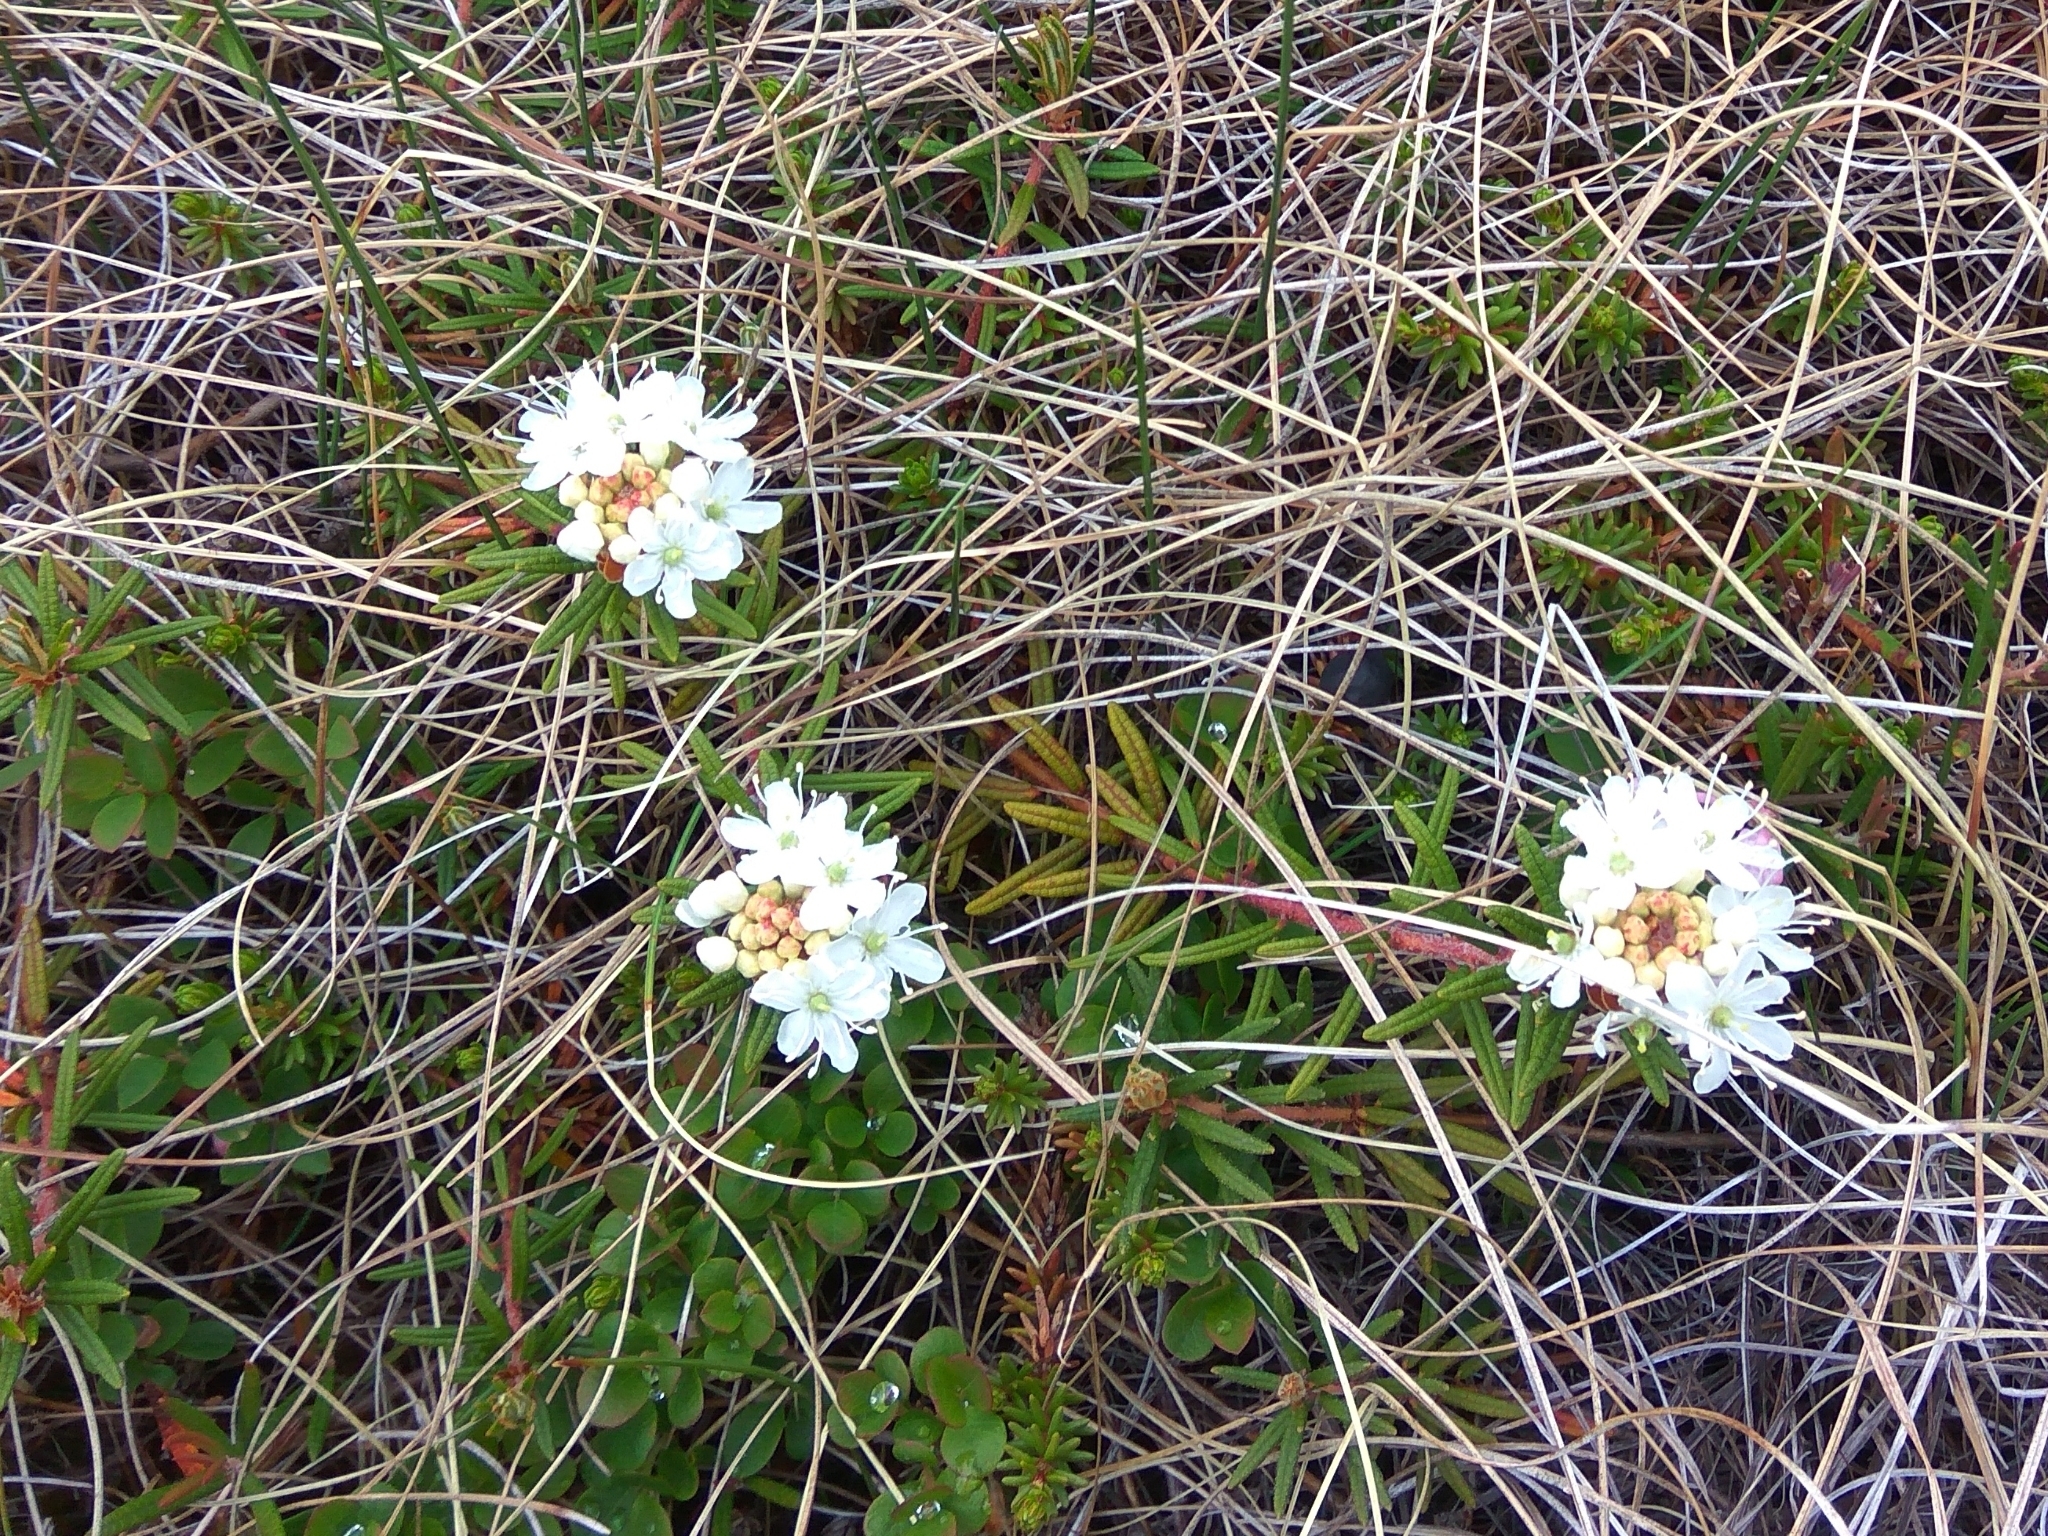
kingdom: Plantae
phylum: Tracheophyta
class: Magnoliopsida
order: Ericales
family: Ericaceae
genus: Rhododendron
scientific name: Rhododendron tomentosum
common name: Marsh labrador tea
